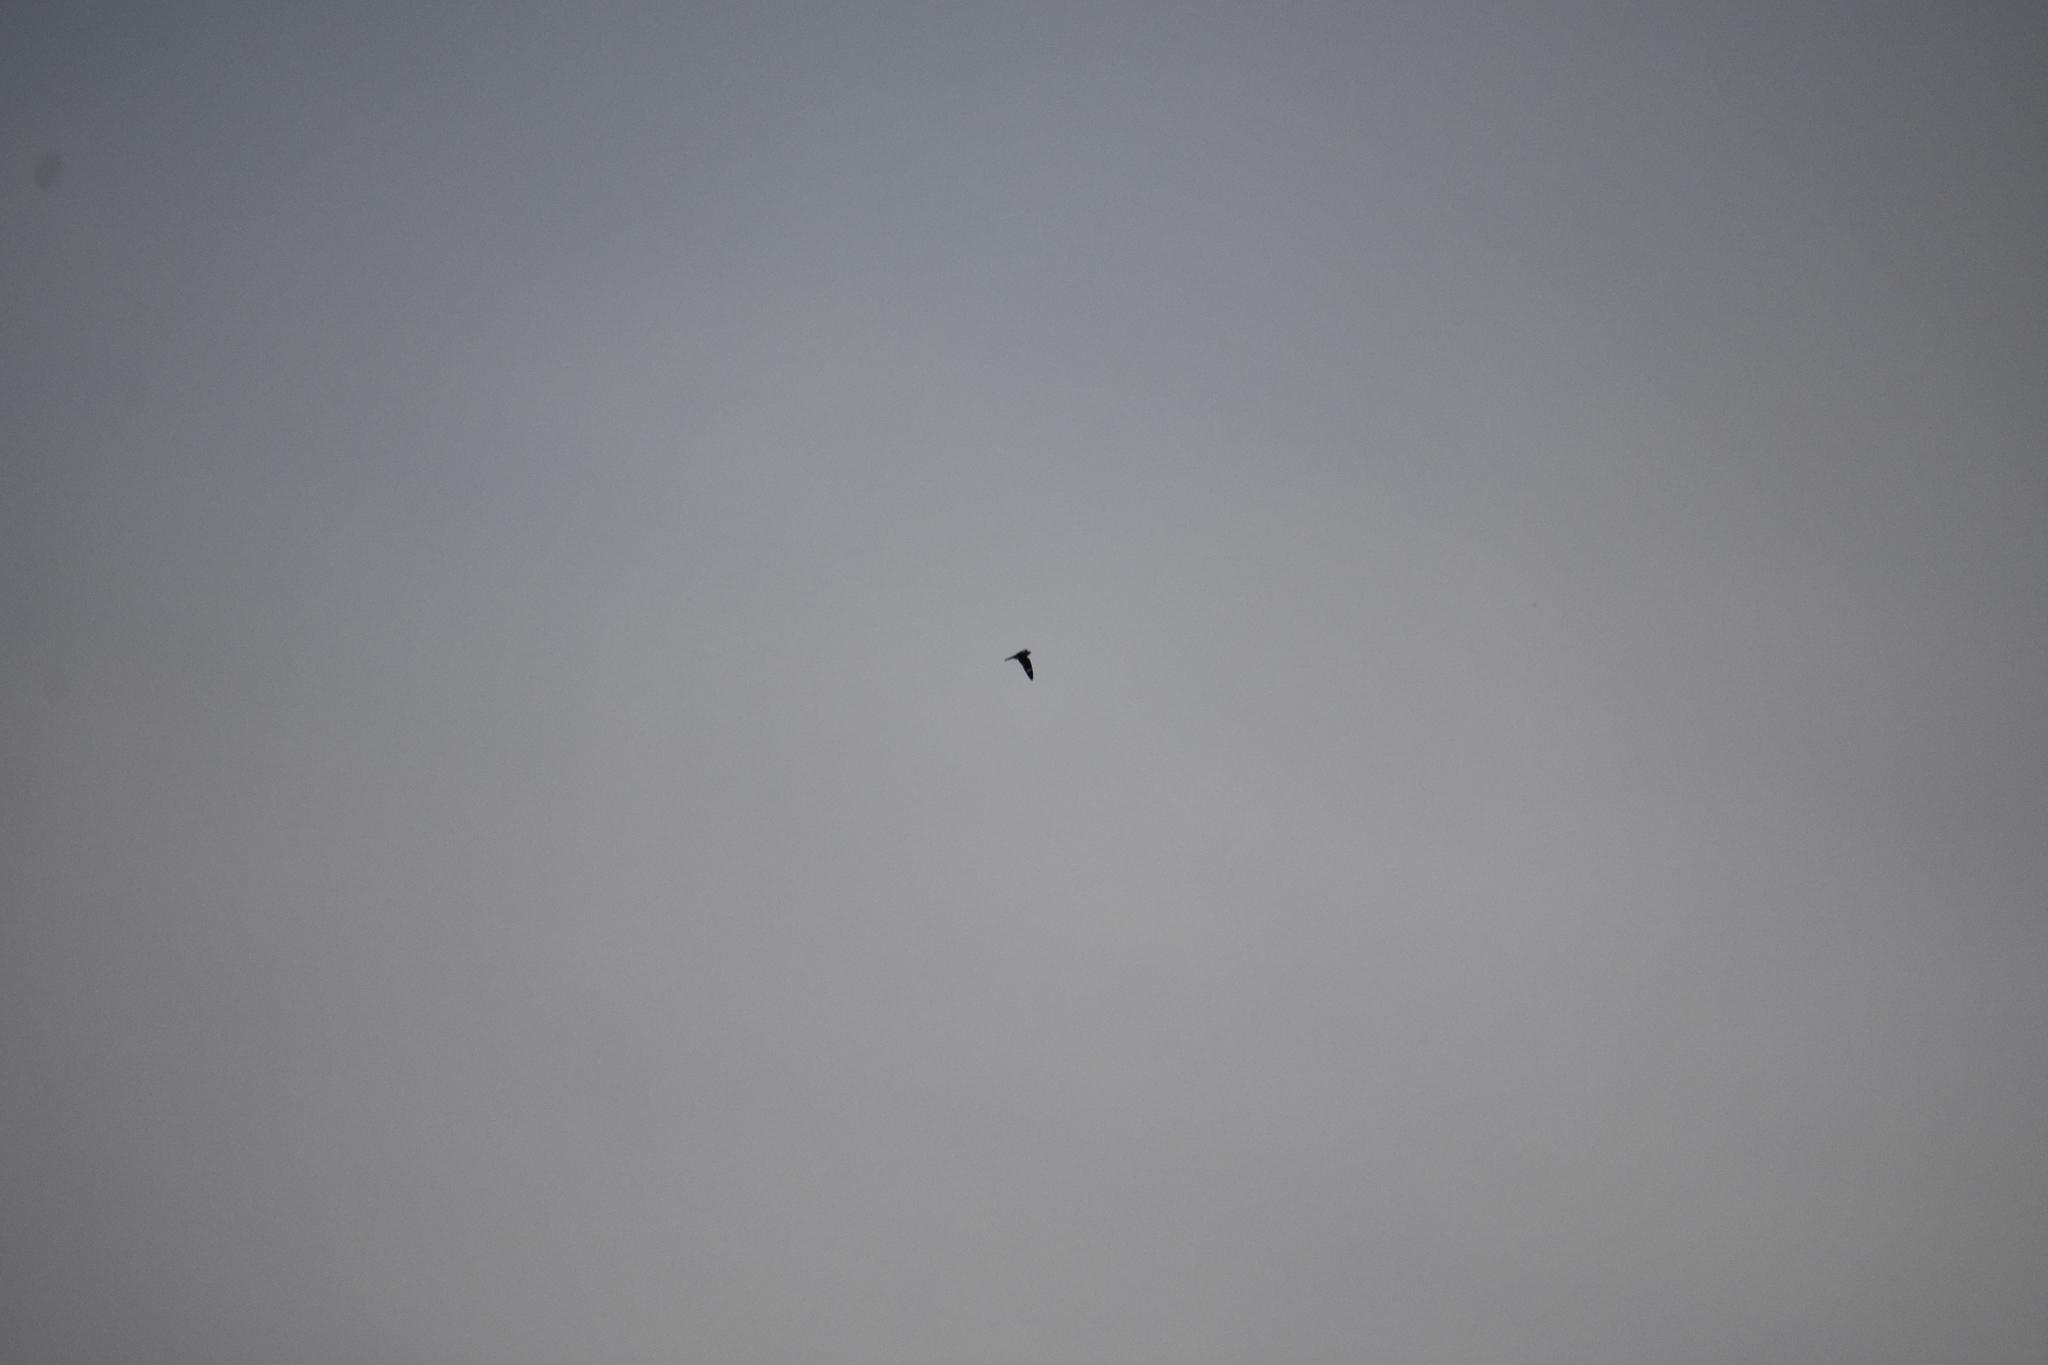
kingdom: Animalia
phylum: Chordata
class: Aves
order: Caprimulgiformes
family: Caprimulgidae
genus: Chordeiles
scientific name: Chordeiles minor
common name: Common nighthawk
